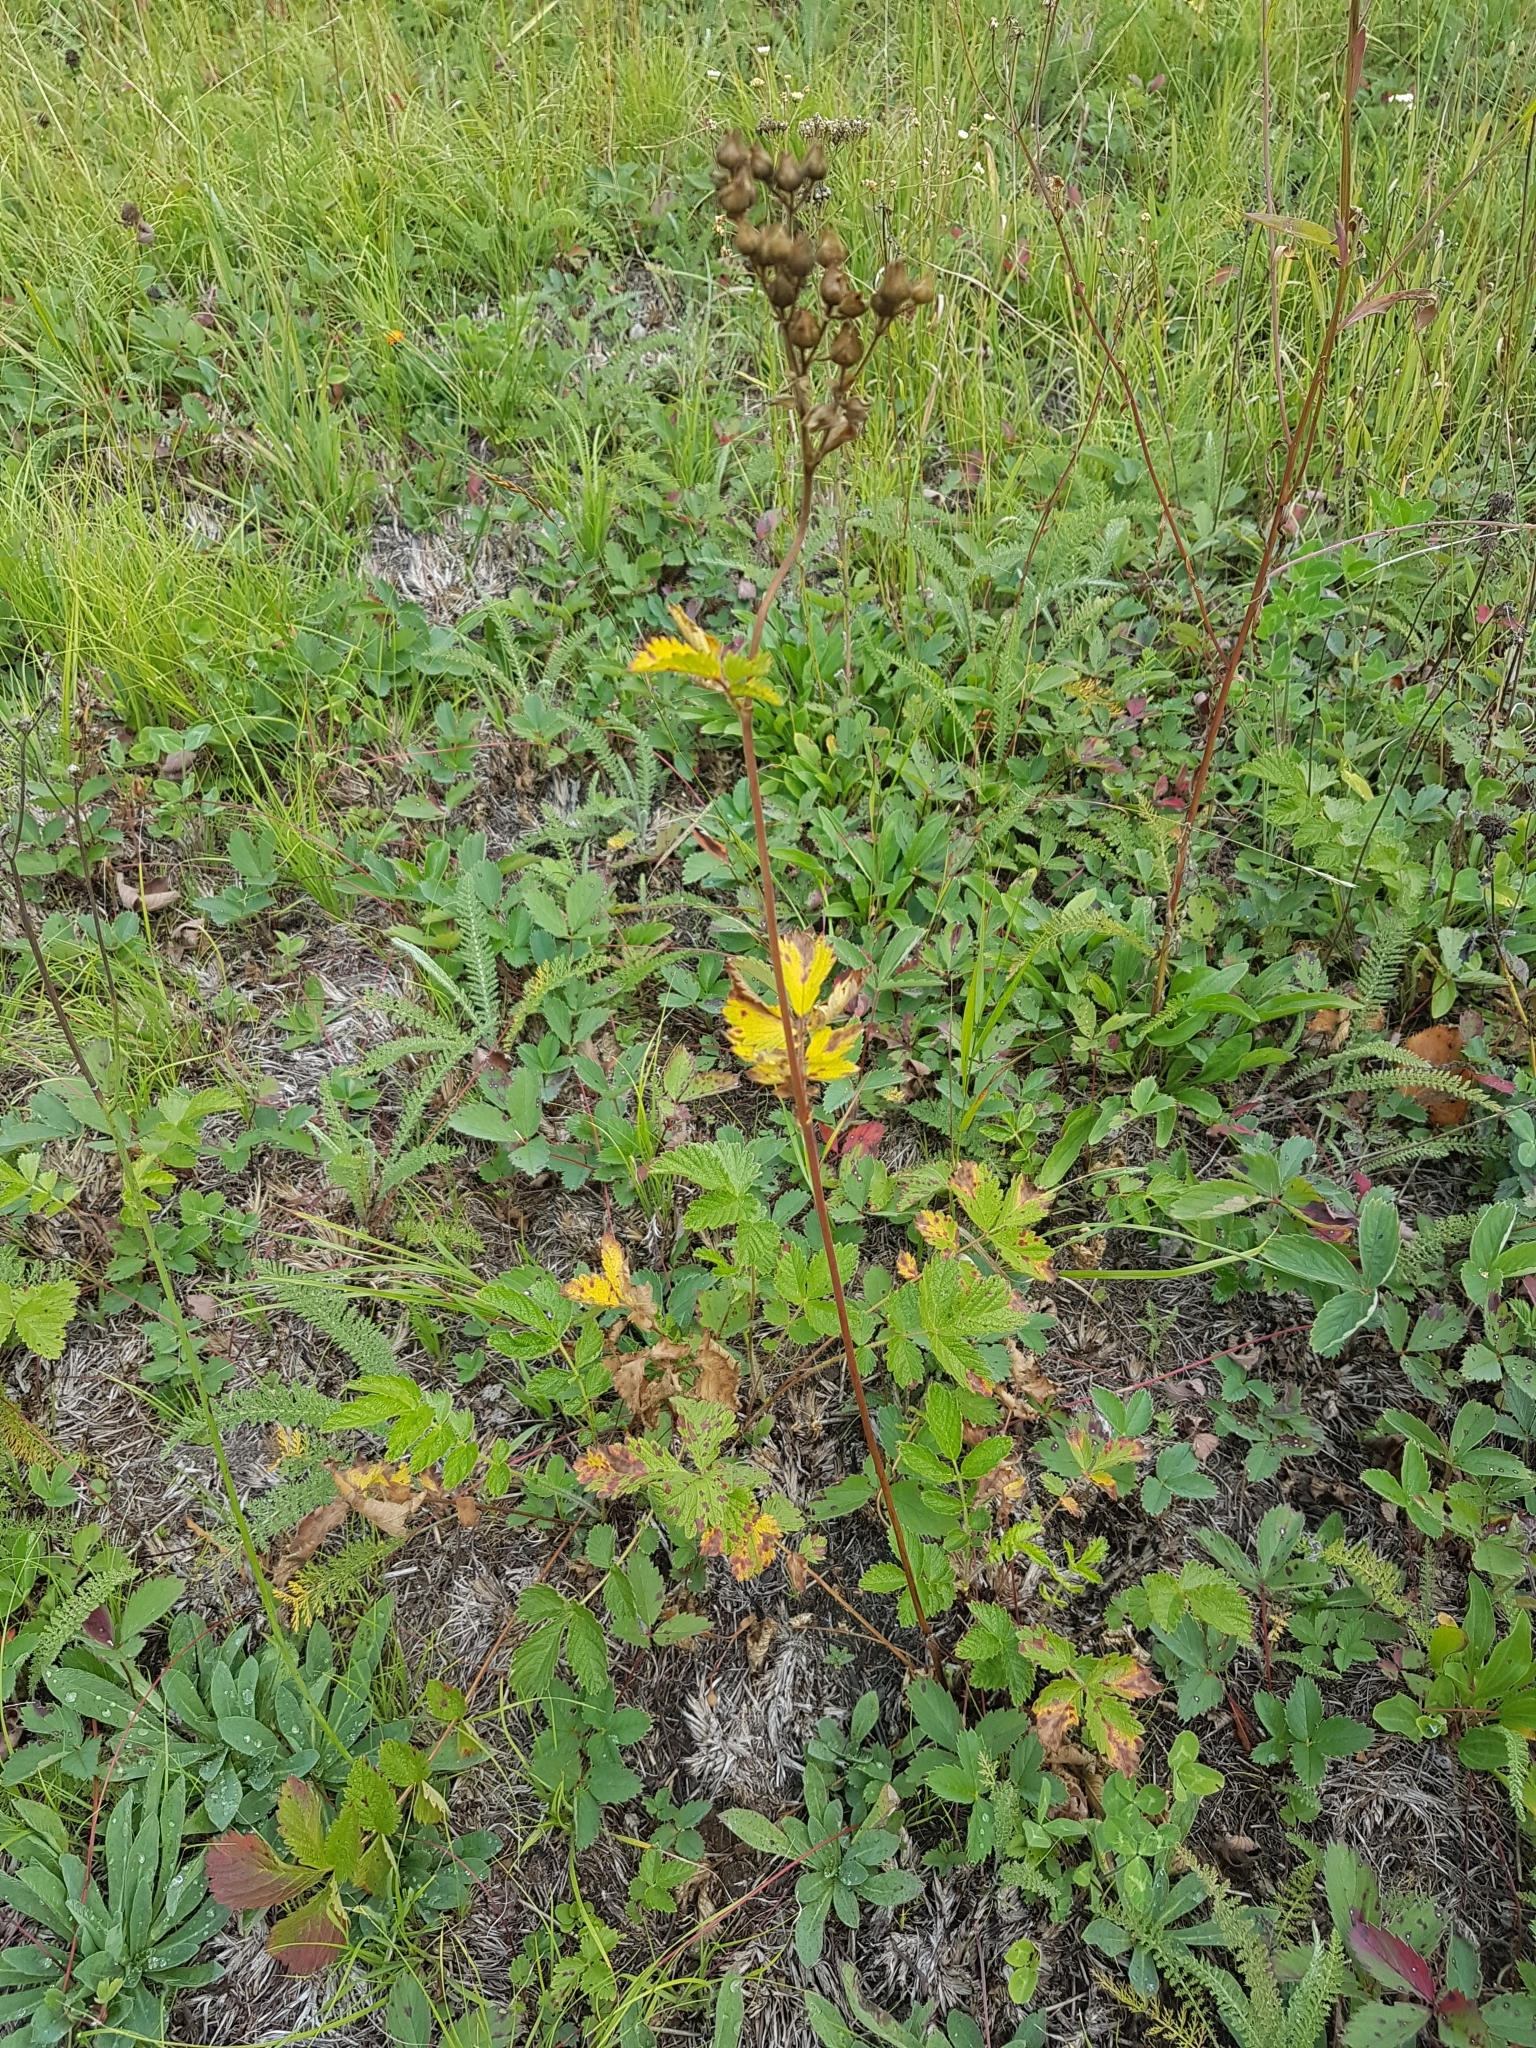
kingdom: Plantae
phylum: Tracheophyta
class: Magnoliopsida
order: Rosales
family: Rosaceae
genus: Drymocallis
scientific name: Drymocallis arguta
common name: Tall cinquefoil
